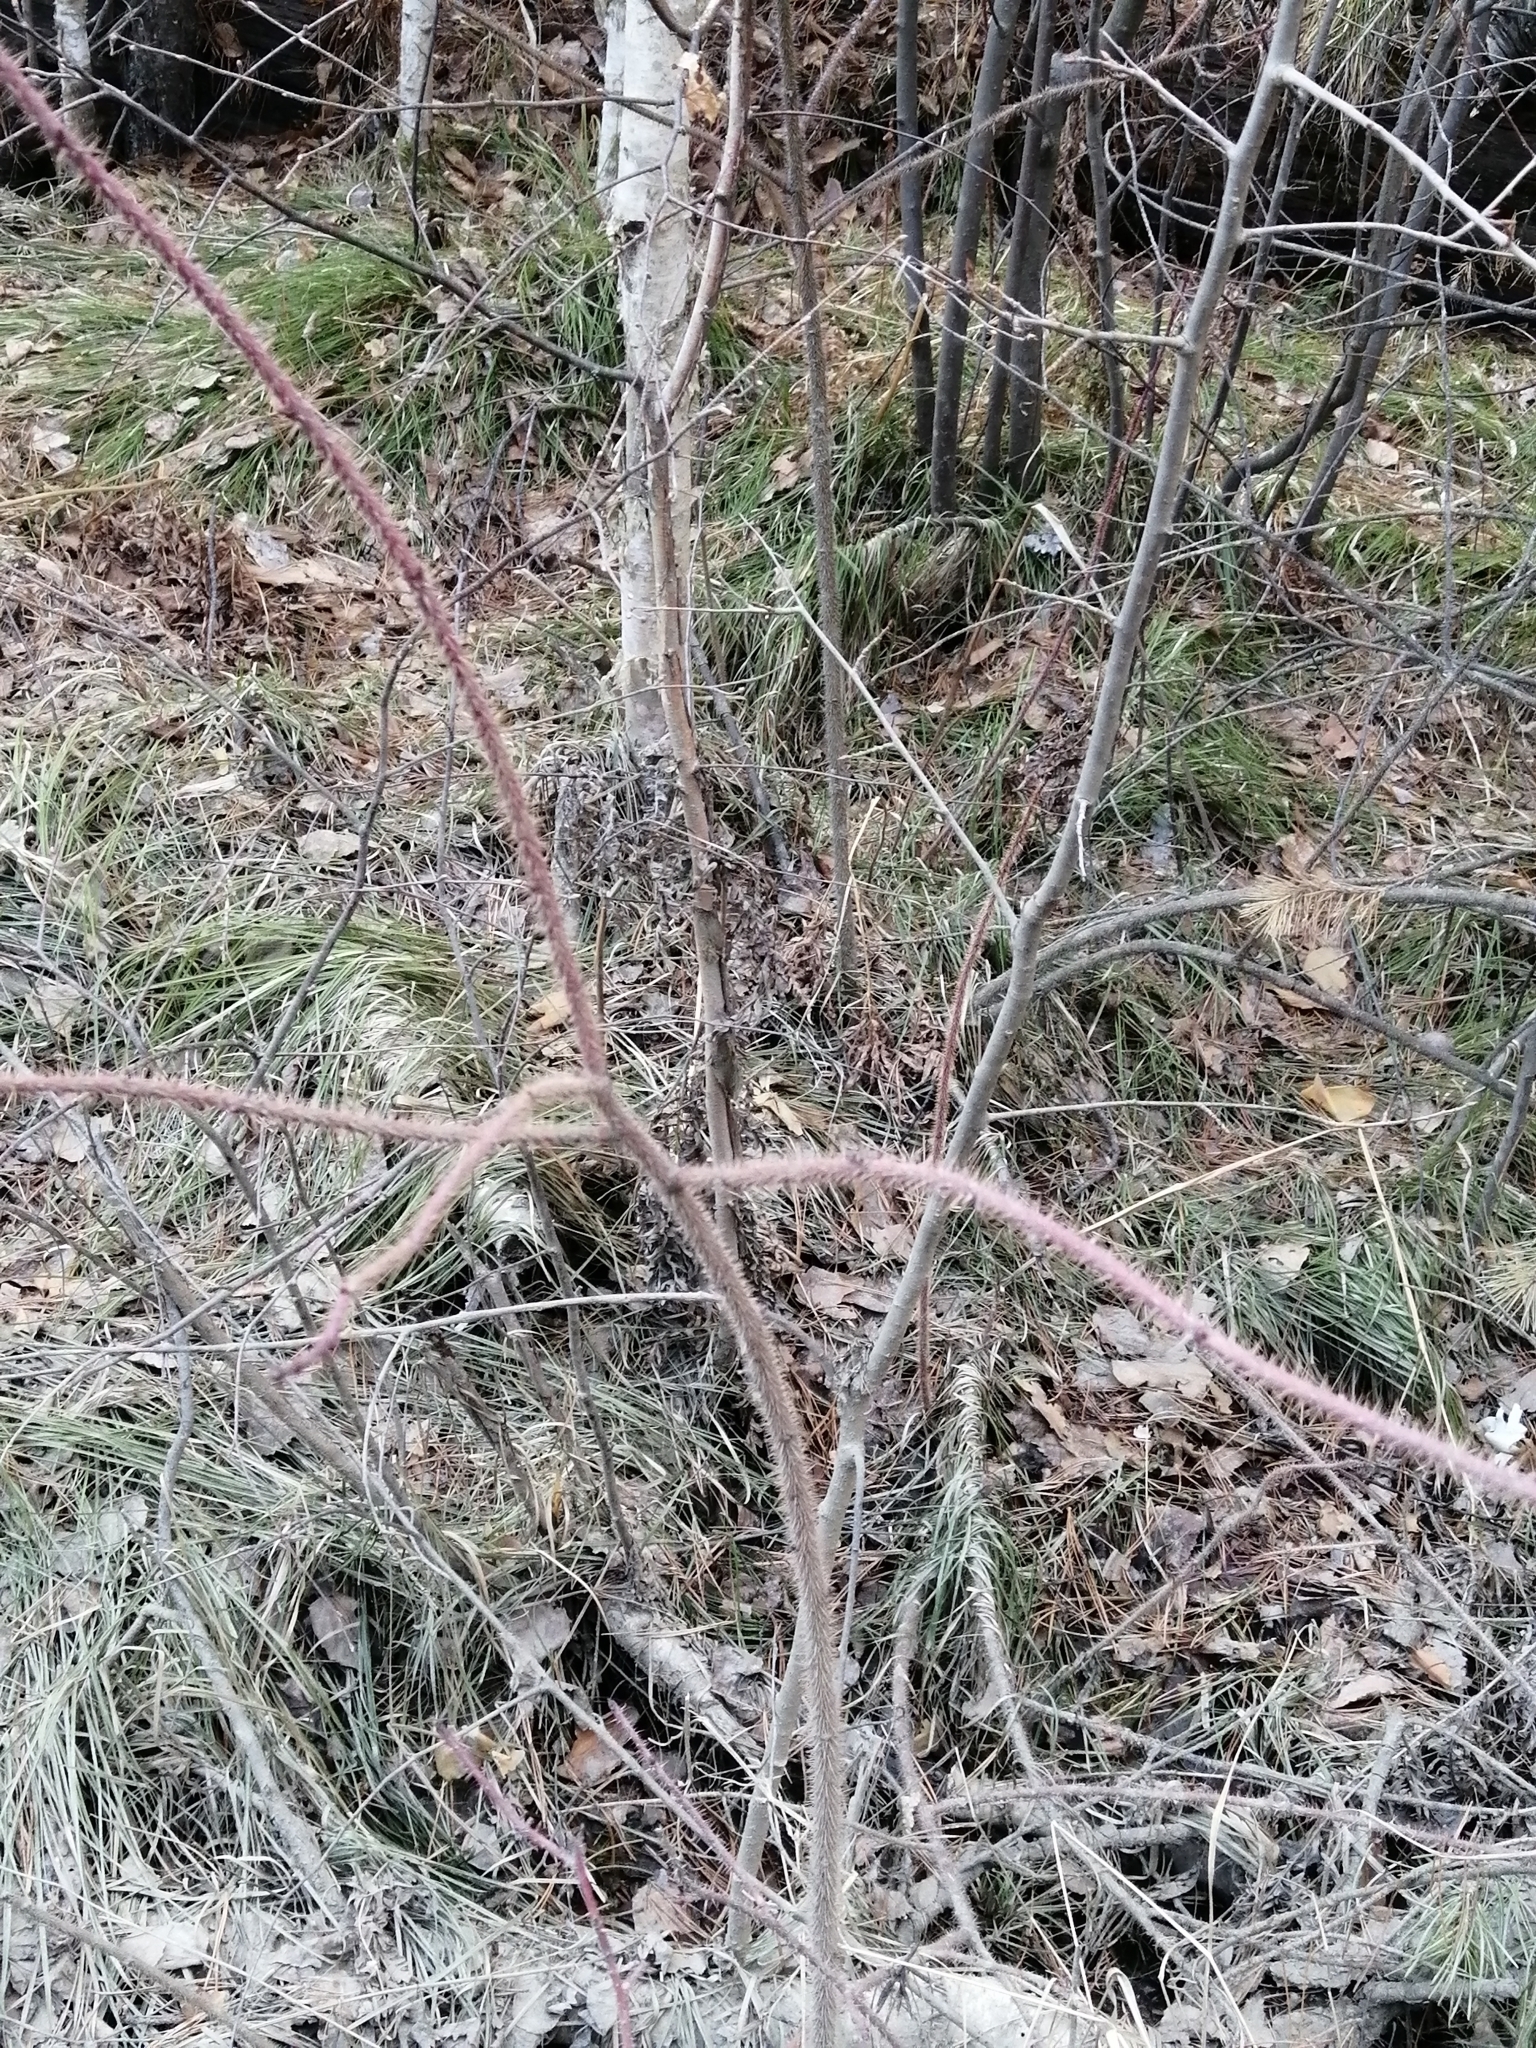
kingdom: Plantae
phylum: Tracheophyta
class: Magnoliopsida
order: Rosales
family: Rosaceae
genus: Rosa
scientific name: Rosa acicularis
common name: Prickly rose
